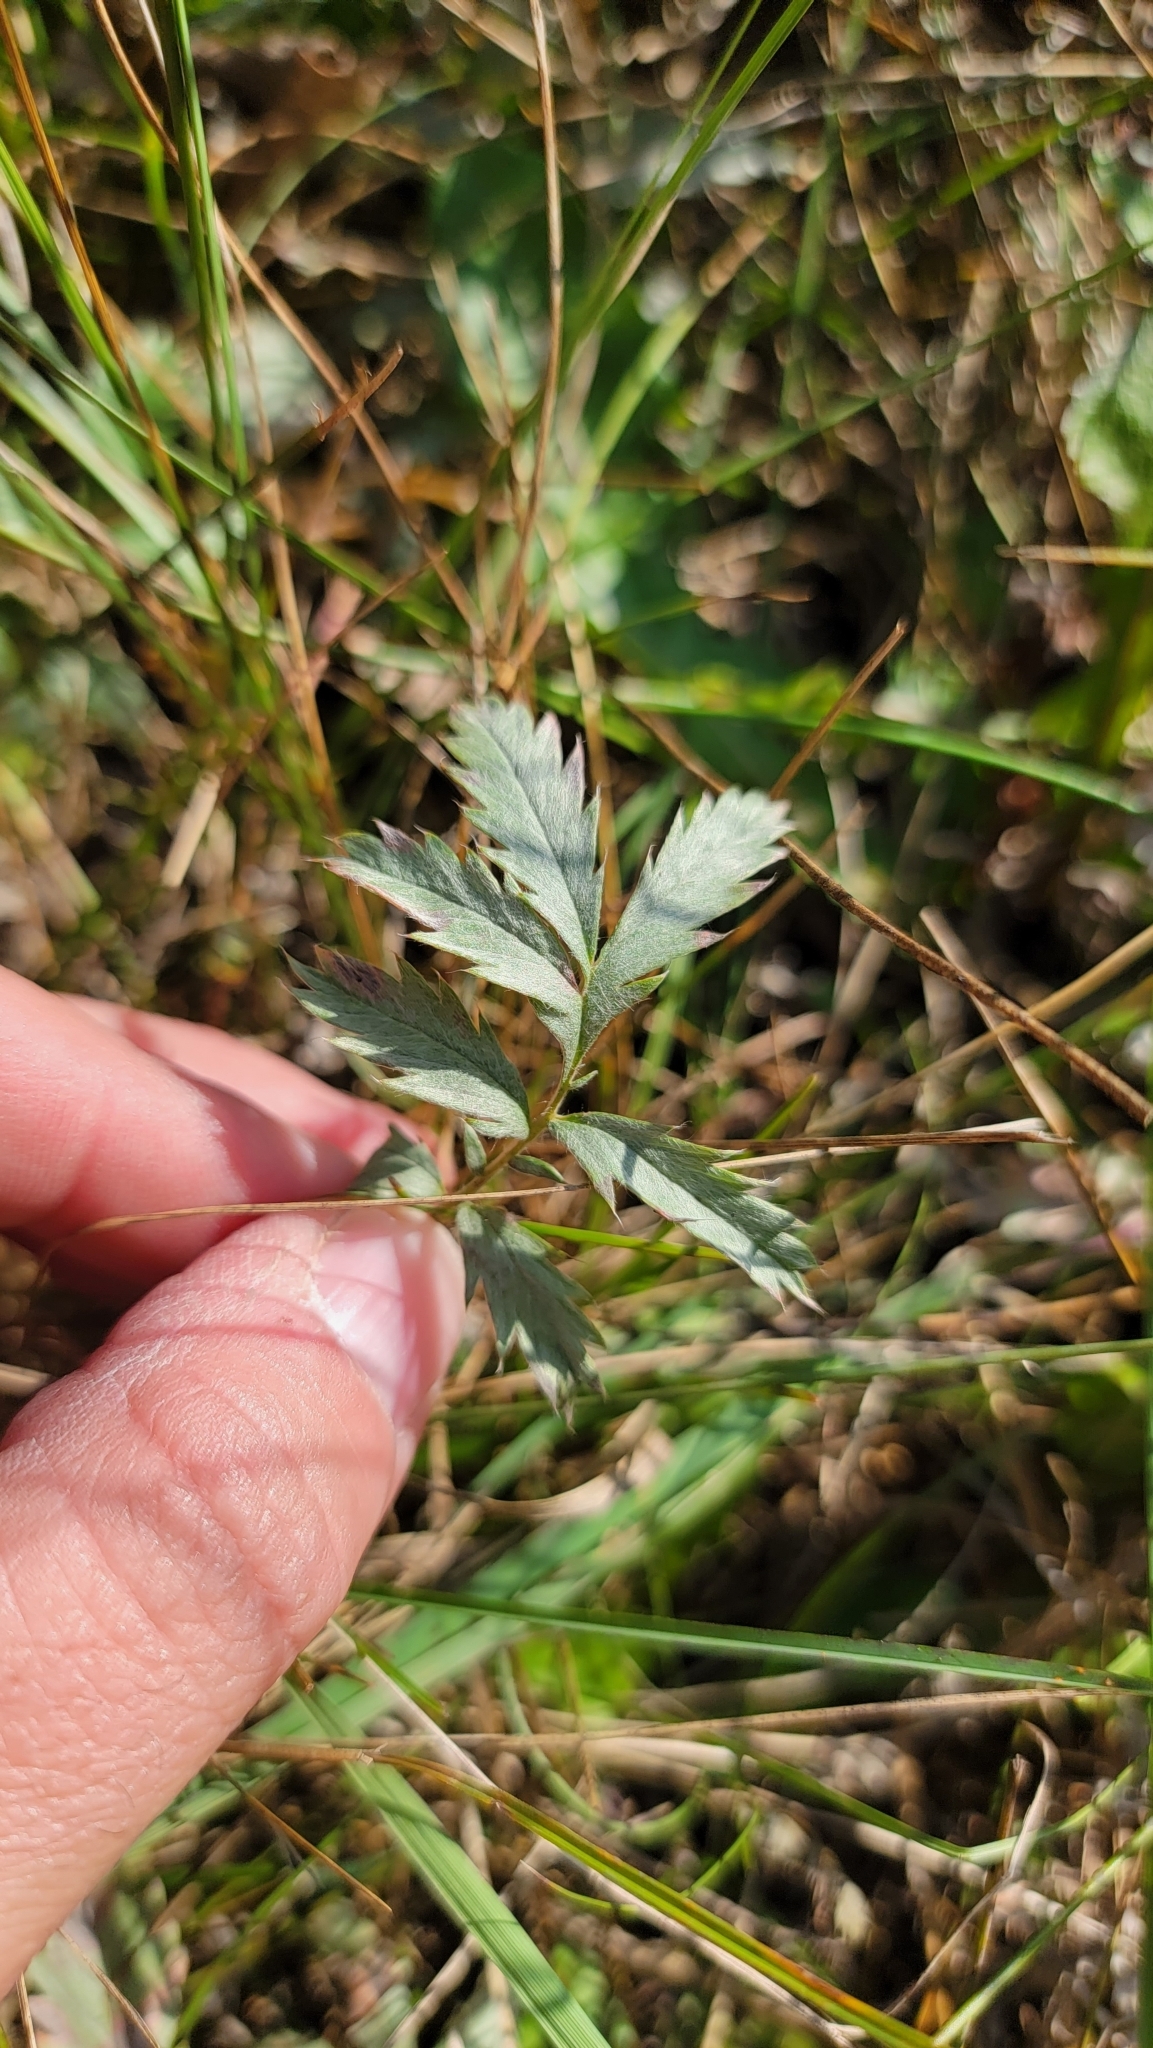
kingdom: Plantae
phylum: Tracheophyta
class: Magnoliopsida
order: Rosales
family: Rosaceae
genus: Argentina
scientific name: Argentina anserina
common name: Common silverweed
